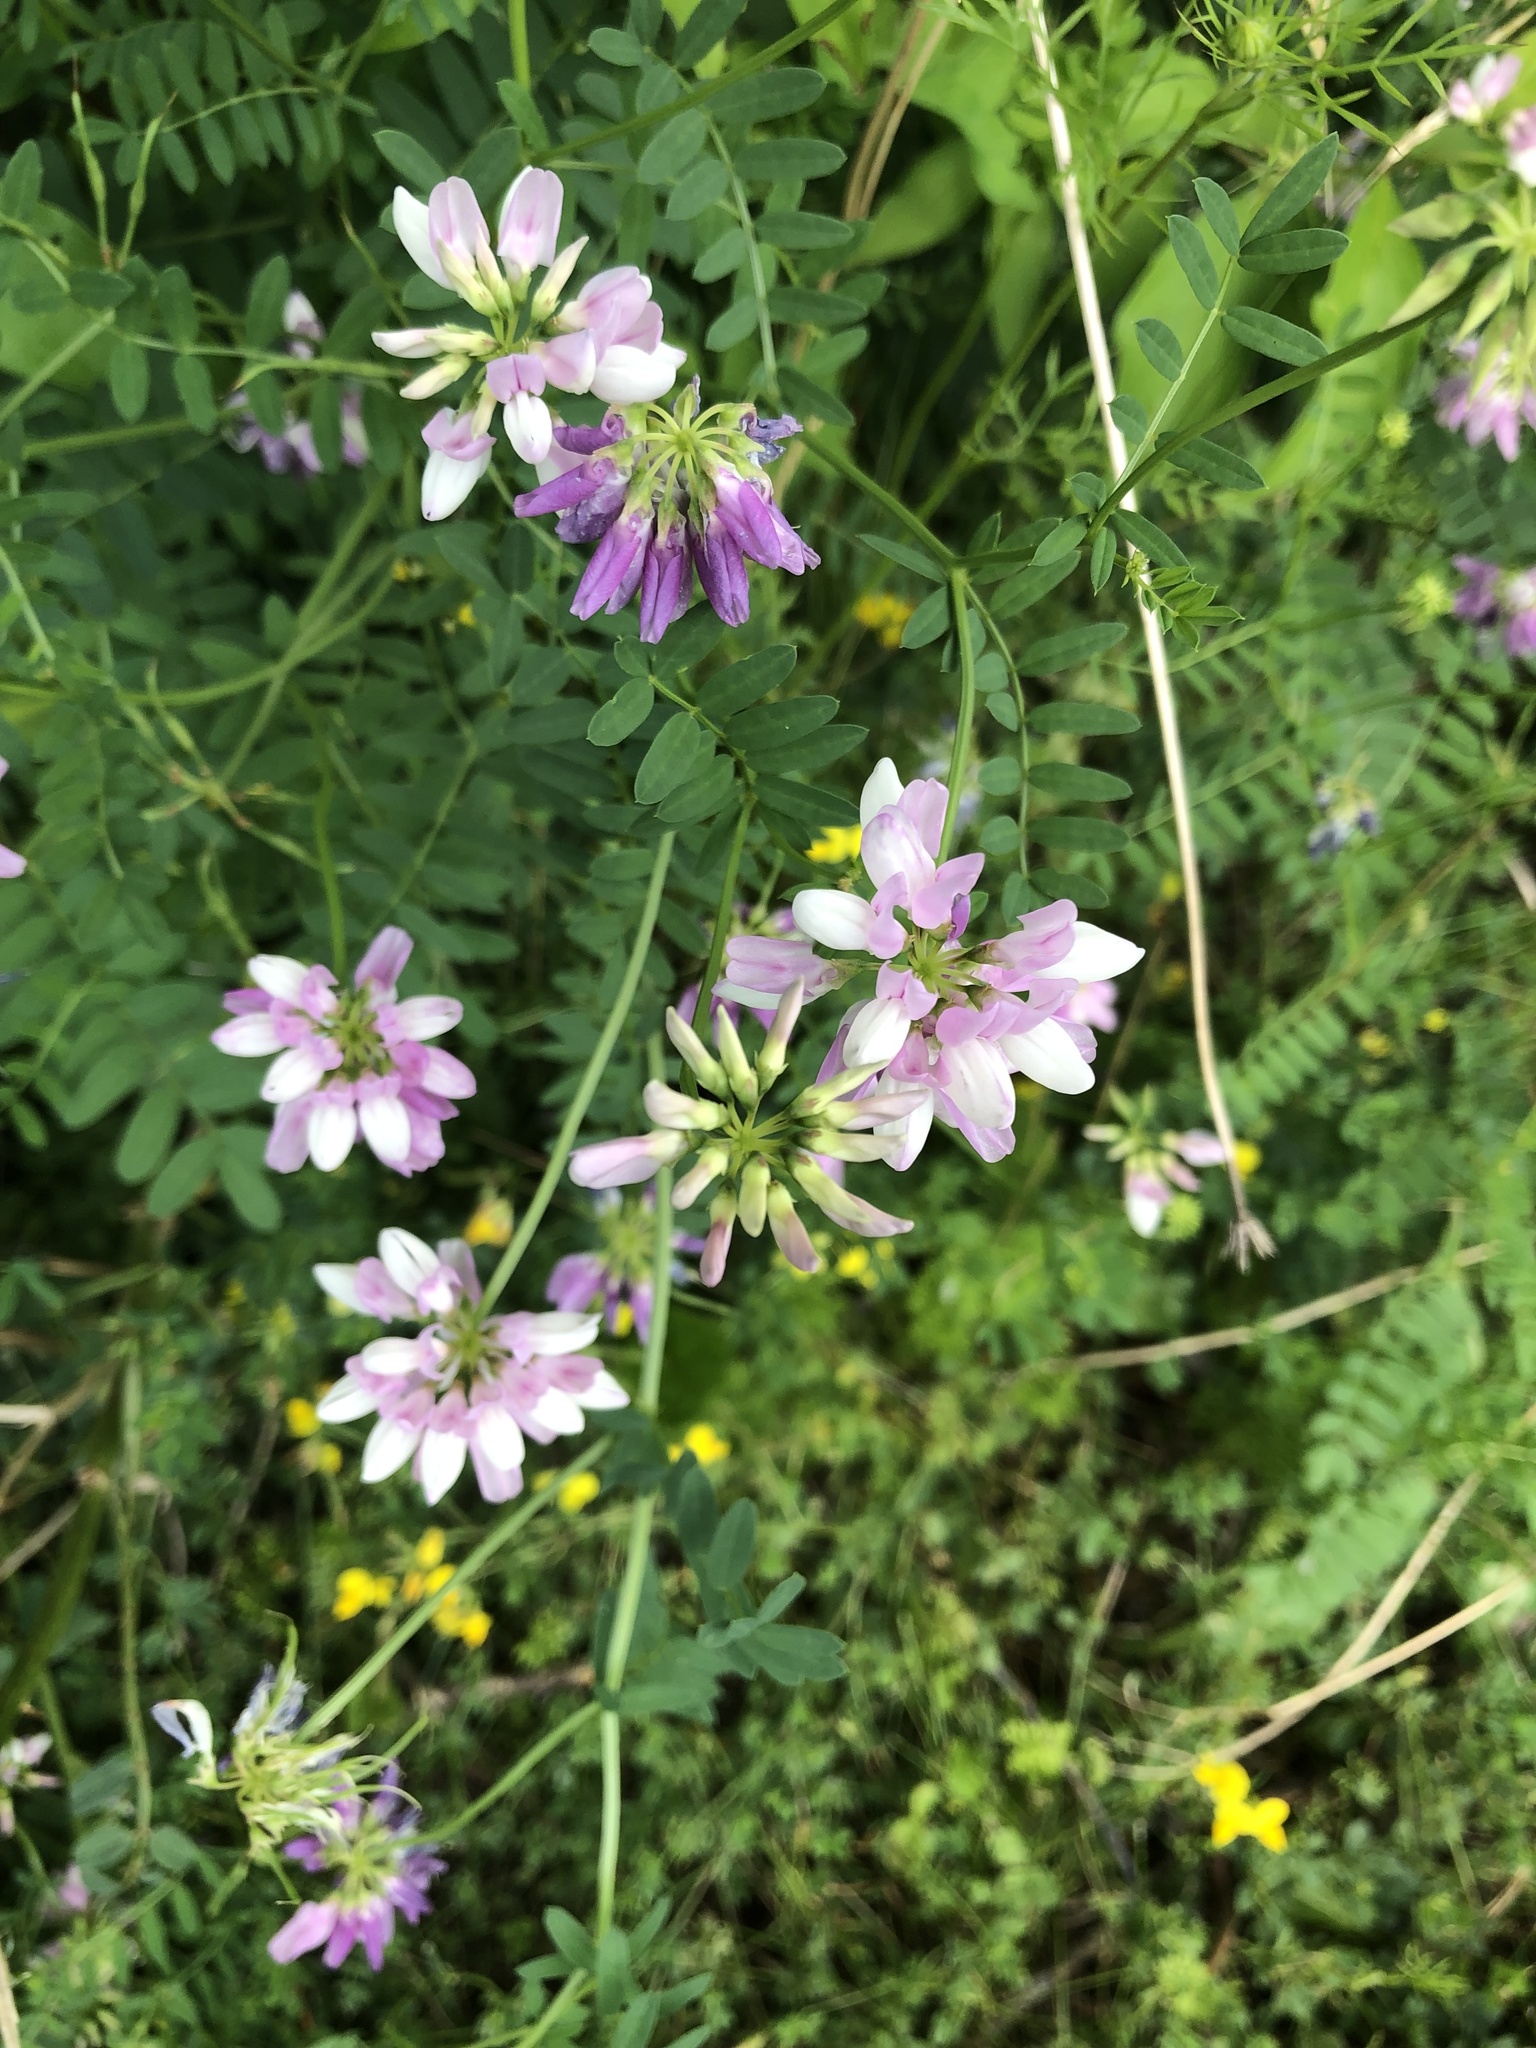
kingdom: Plantae
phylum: Tracheophyta
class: Magnoliopsida
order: Fabales
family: Fabaceae
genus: Coronilla
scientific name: Coronilla varia
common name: Crownvetch
